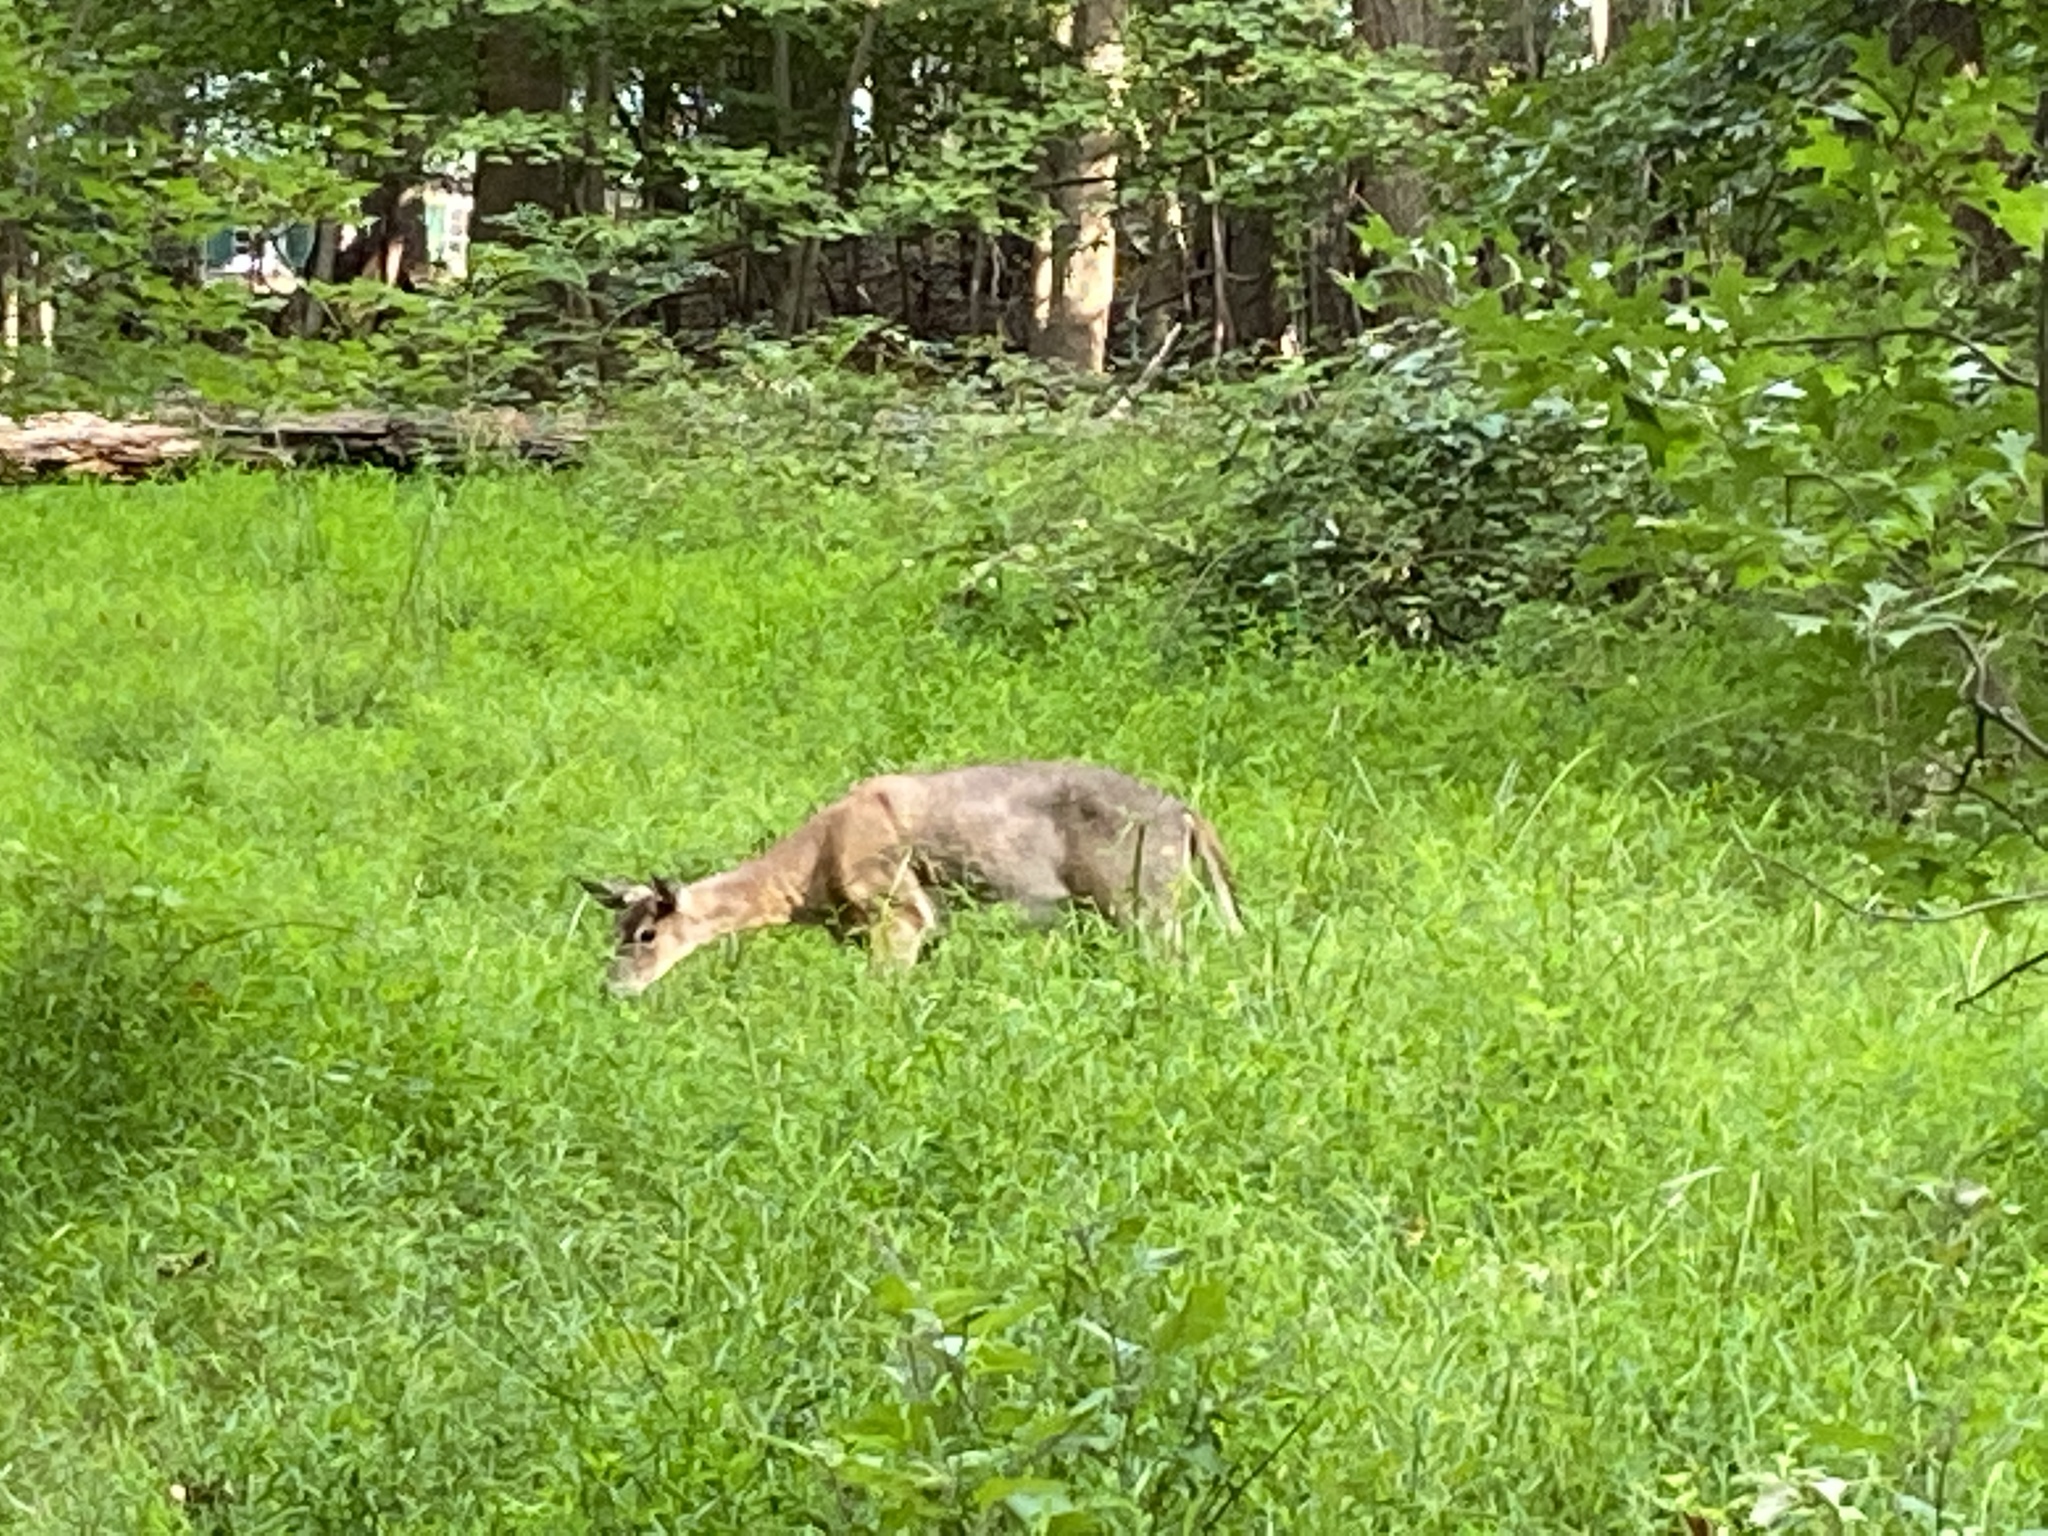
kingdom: Animalia
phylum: Chordata
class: Mammalia
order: Artiodactyla
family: Cervidae
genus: Odocoileus
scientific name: Odocoileus virginianus
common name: White-tailed deer
